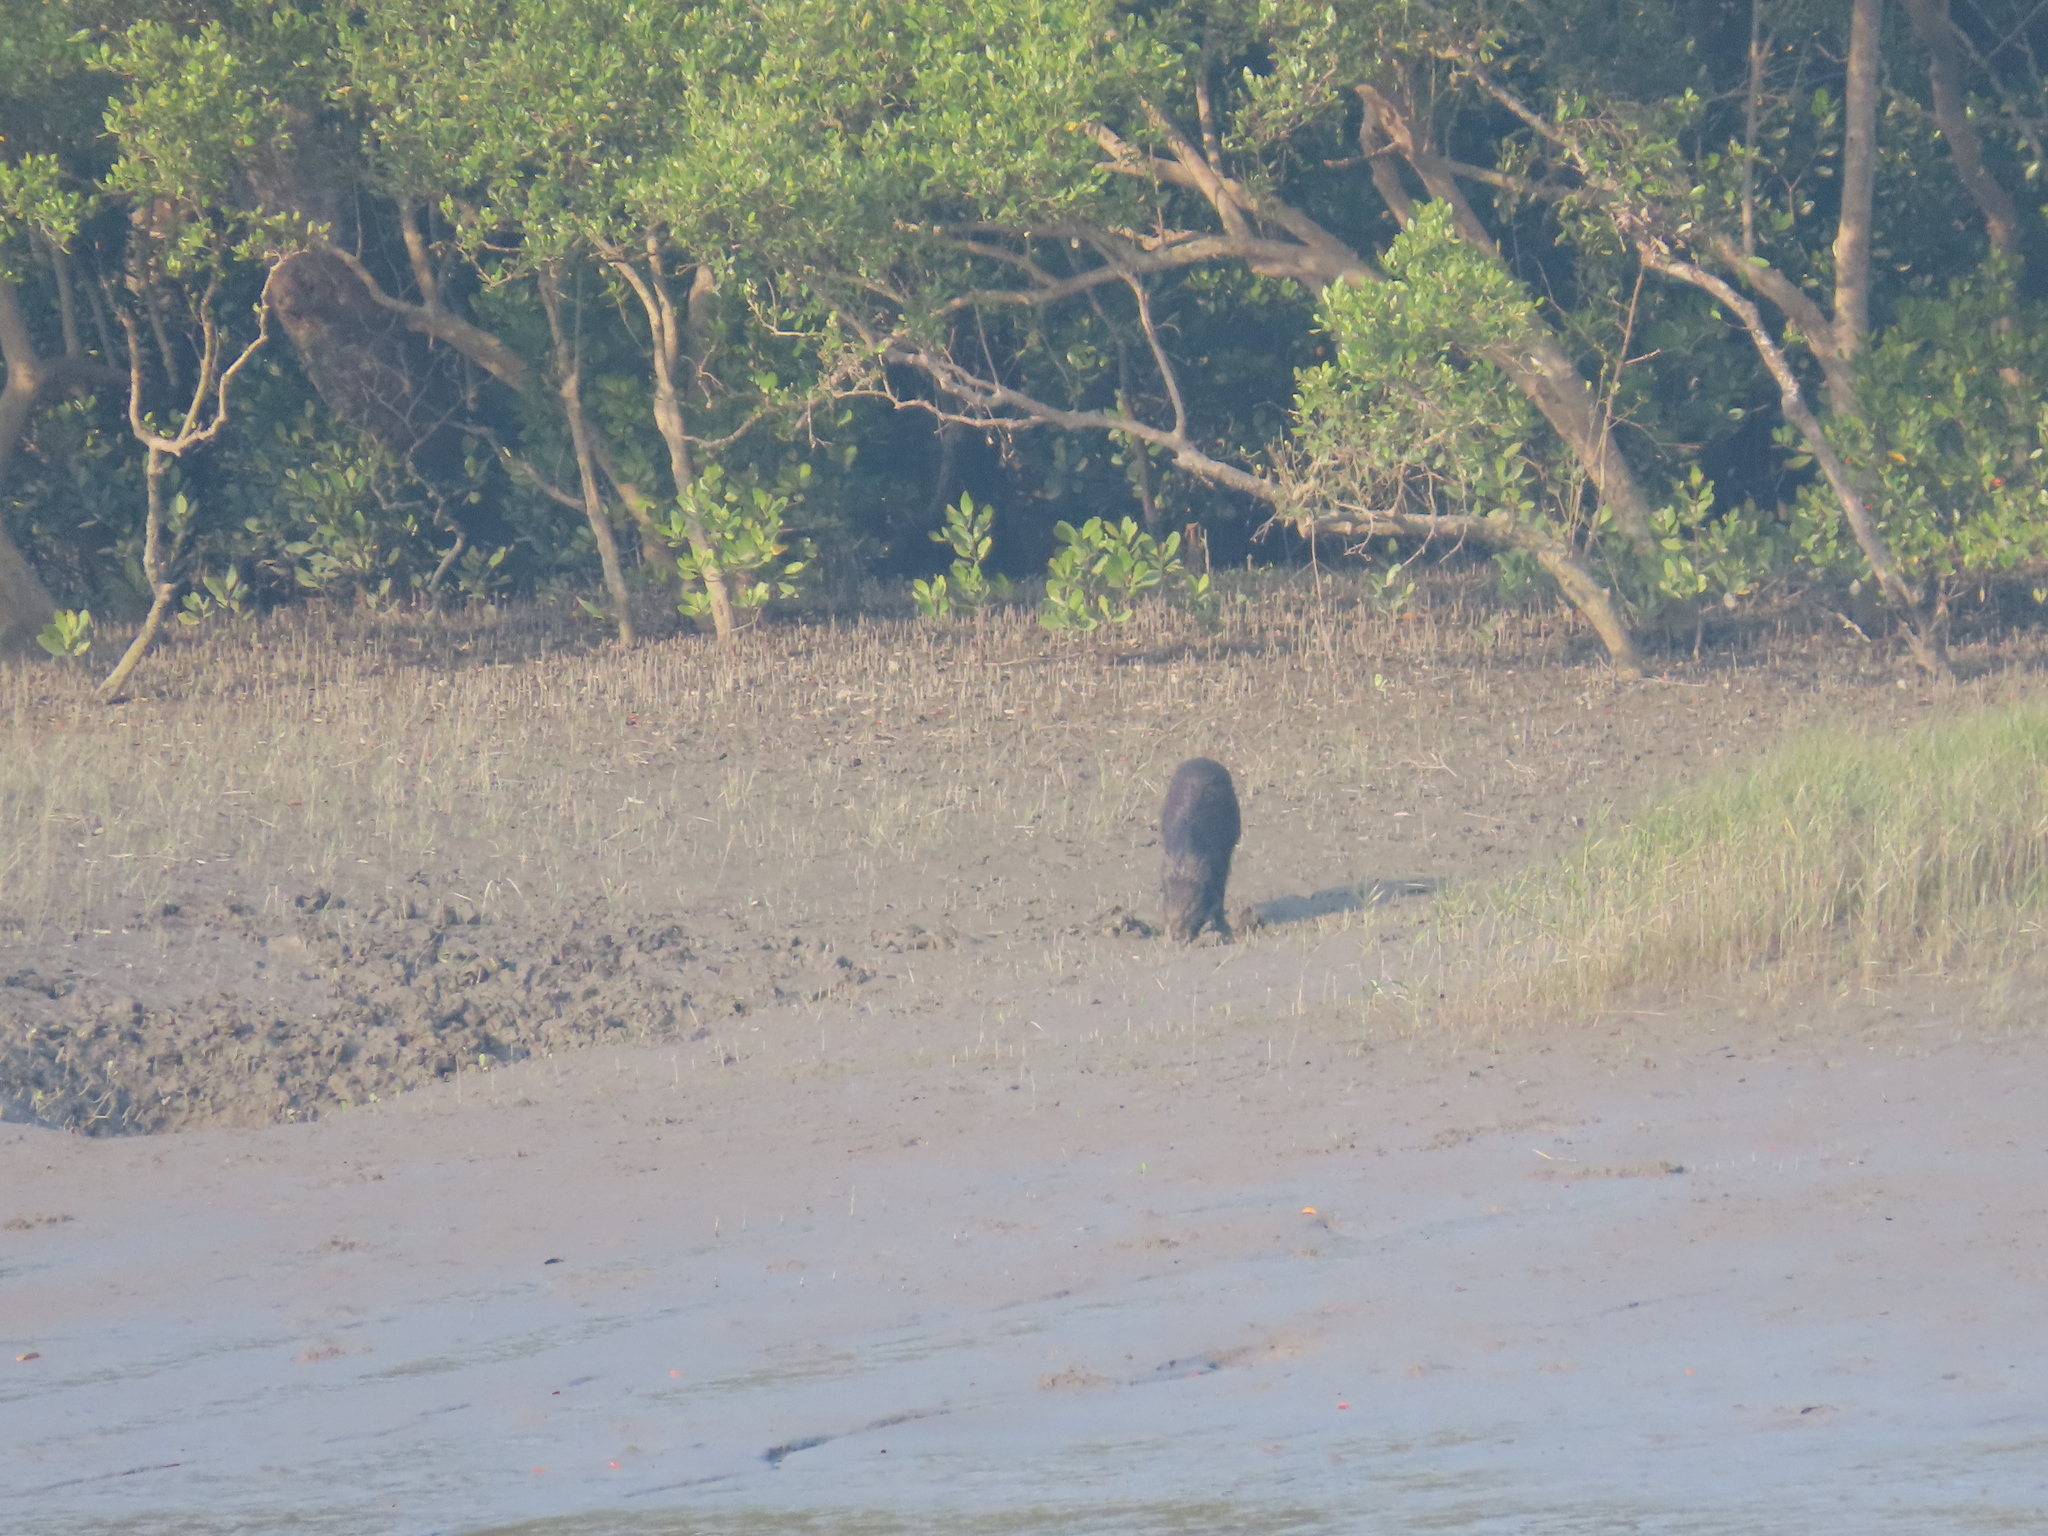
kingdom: Animalia
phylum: Chordata
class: Mammalia
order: Artiodactyla
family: Suidae
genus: Sus
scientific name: Sus scrofa
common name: Wild boar
